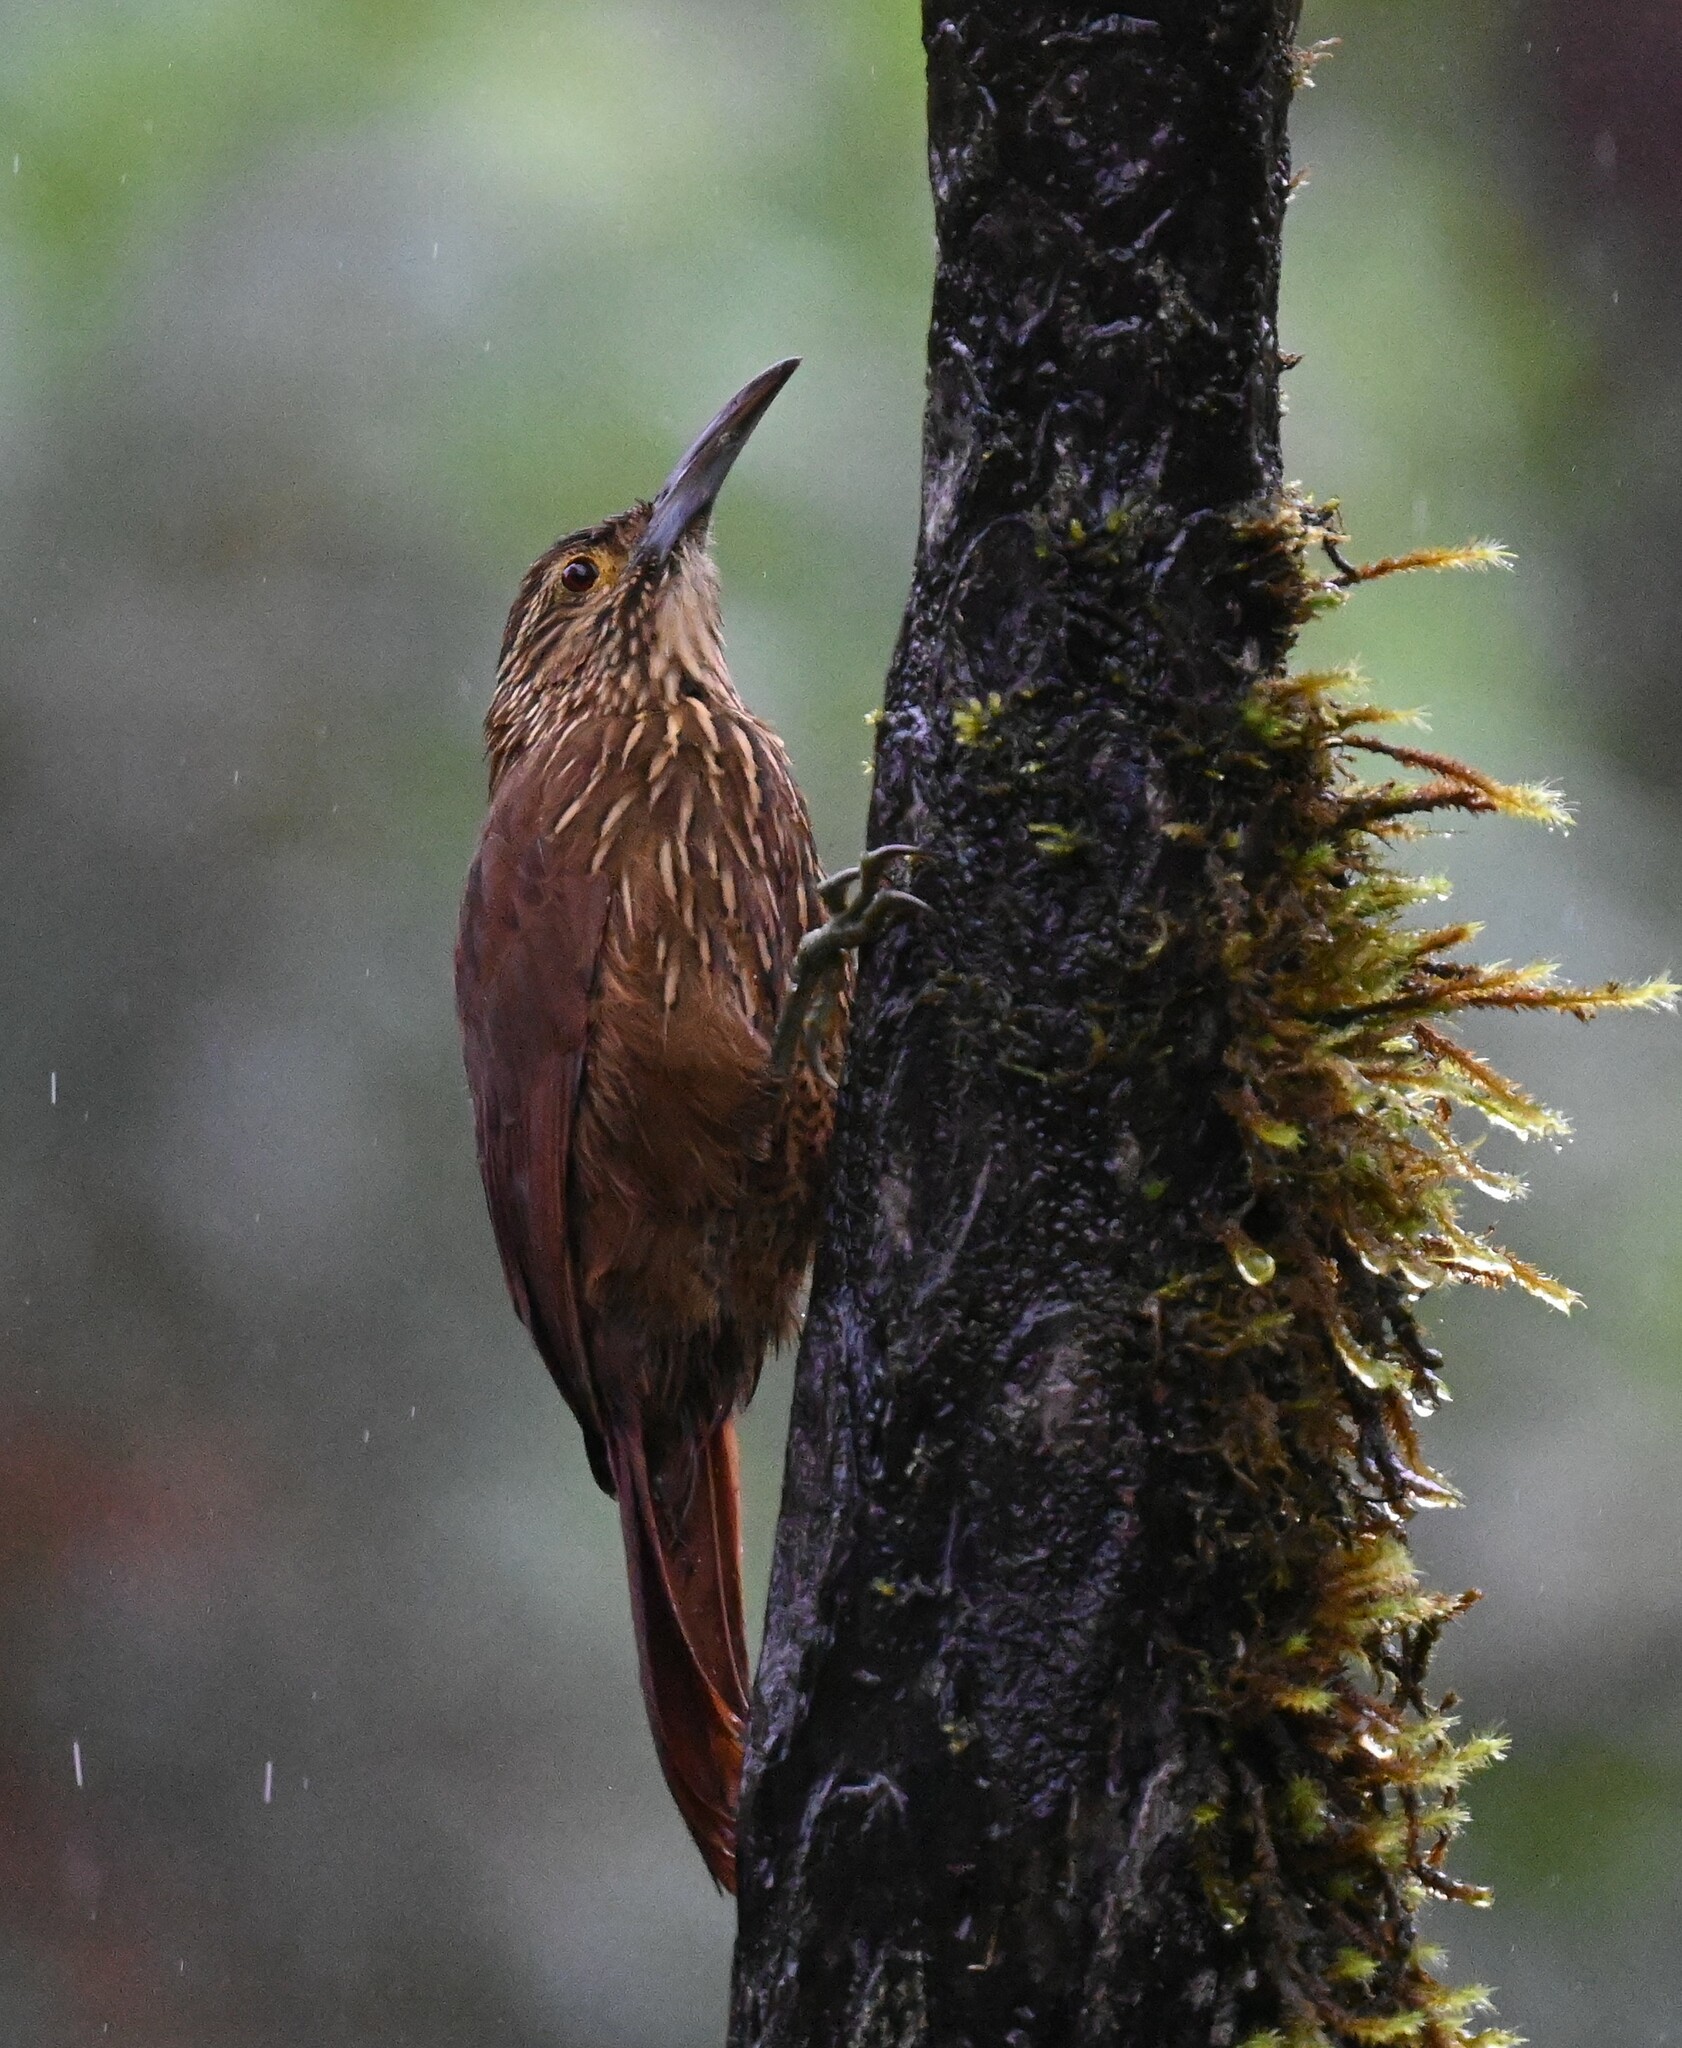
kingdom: Animalia
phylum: Chordata
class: Aves
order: Passeriformes
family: Furnariidae
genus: Xiphocolaptes
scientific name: Xiphocolaptes promeropirhynchus
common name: Strong-billed woodcreeper
